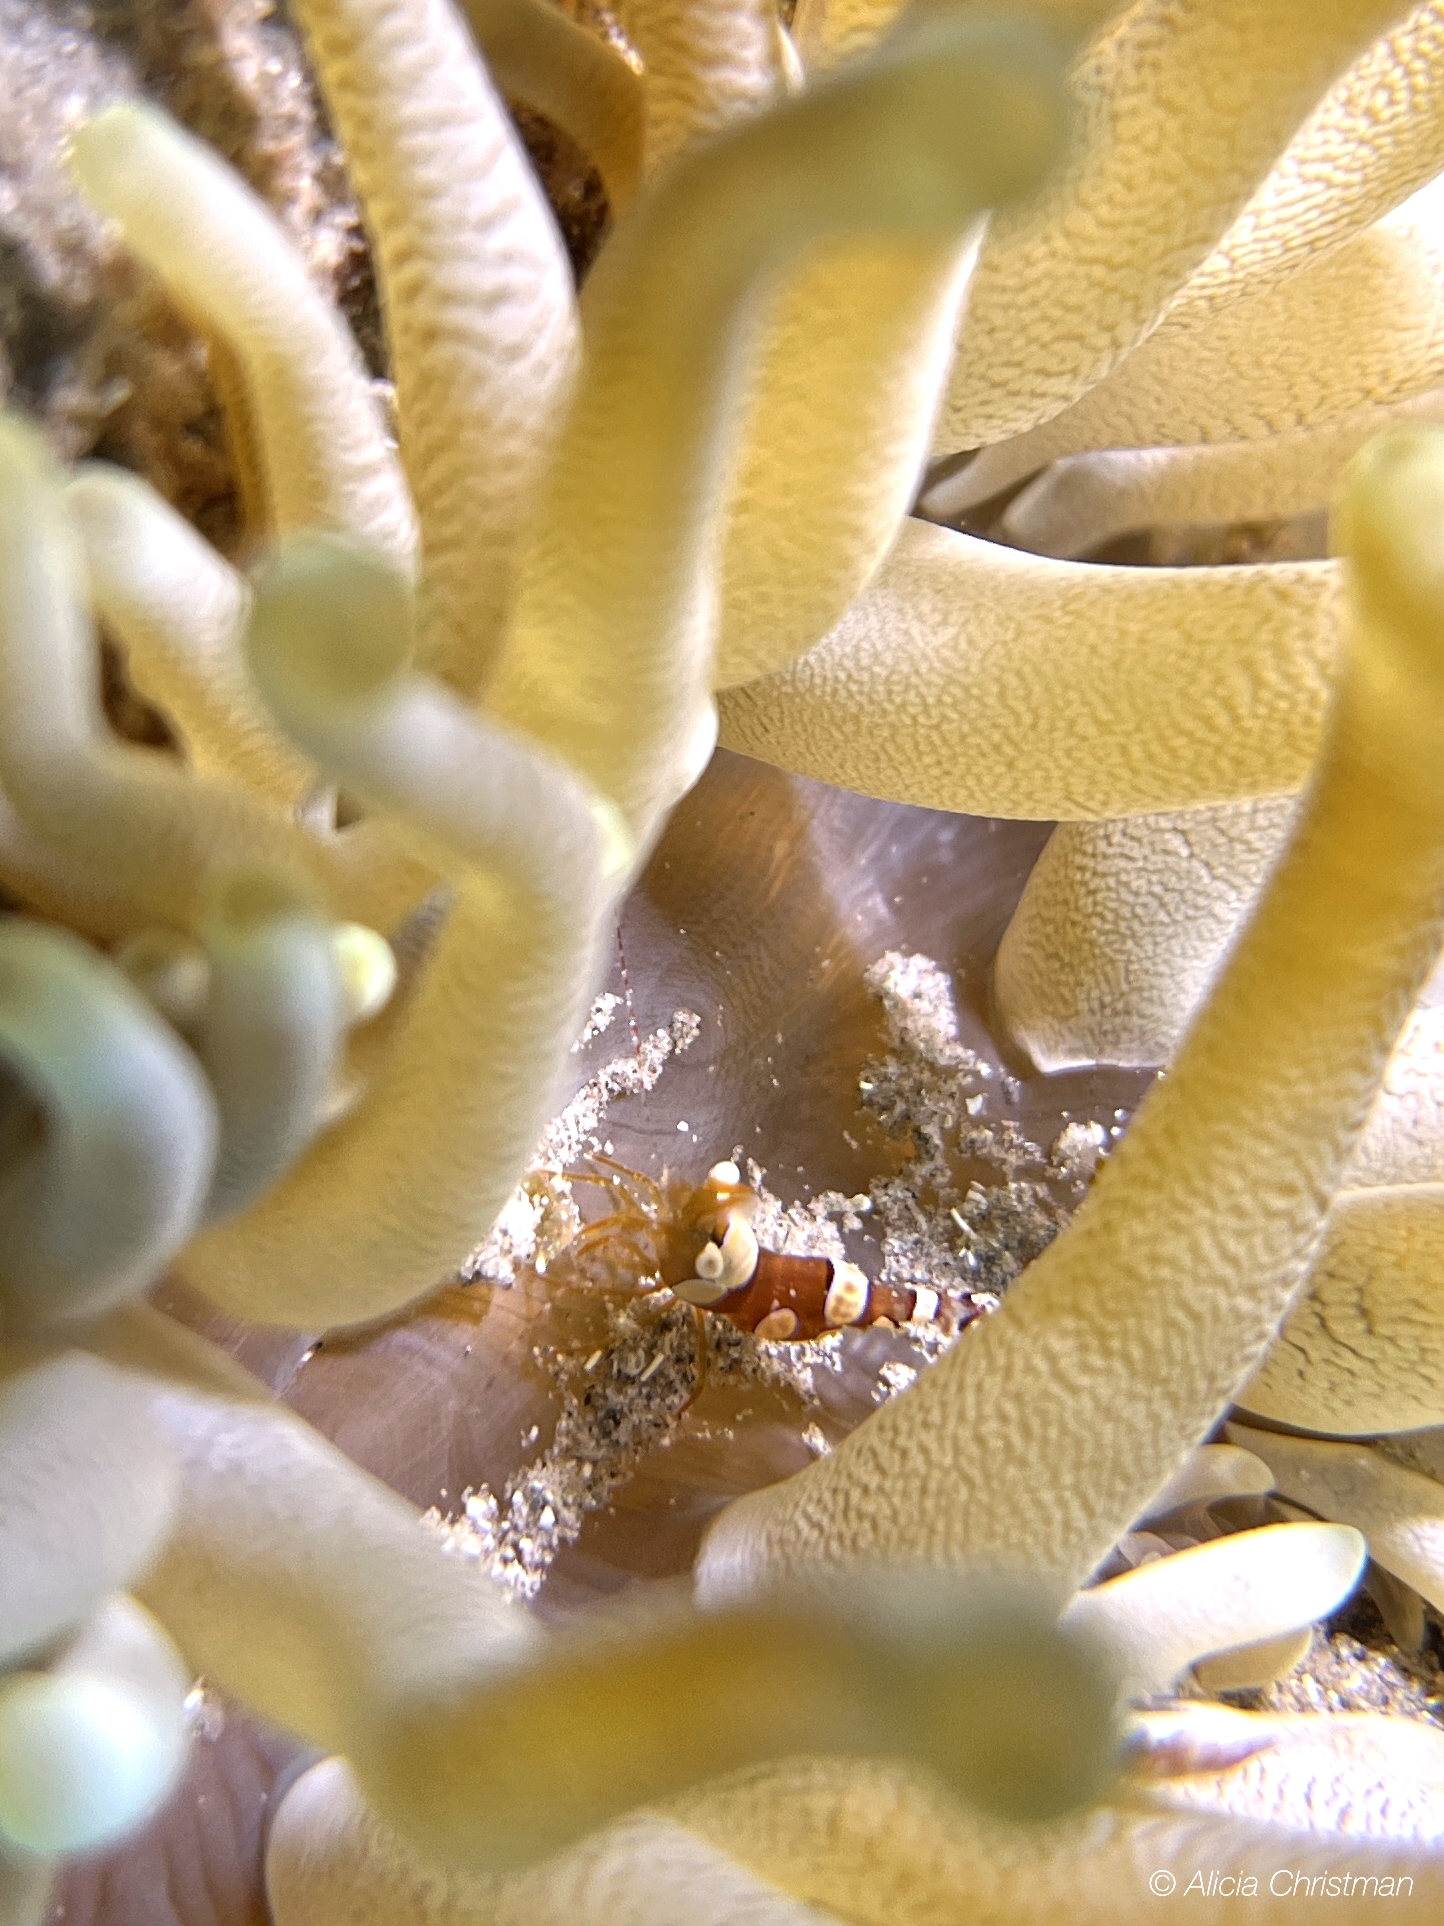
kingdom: Animalia
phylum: Arthropoda
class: Malacostraca
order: Decapoda
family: Thoridae
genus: Thor
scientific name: Thor dicaprio
